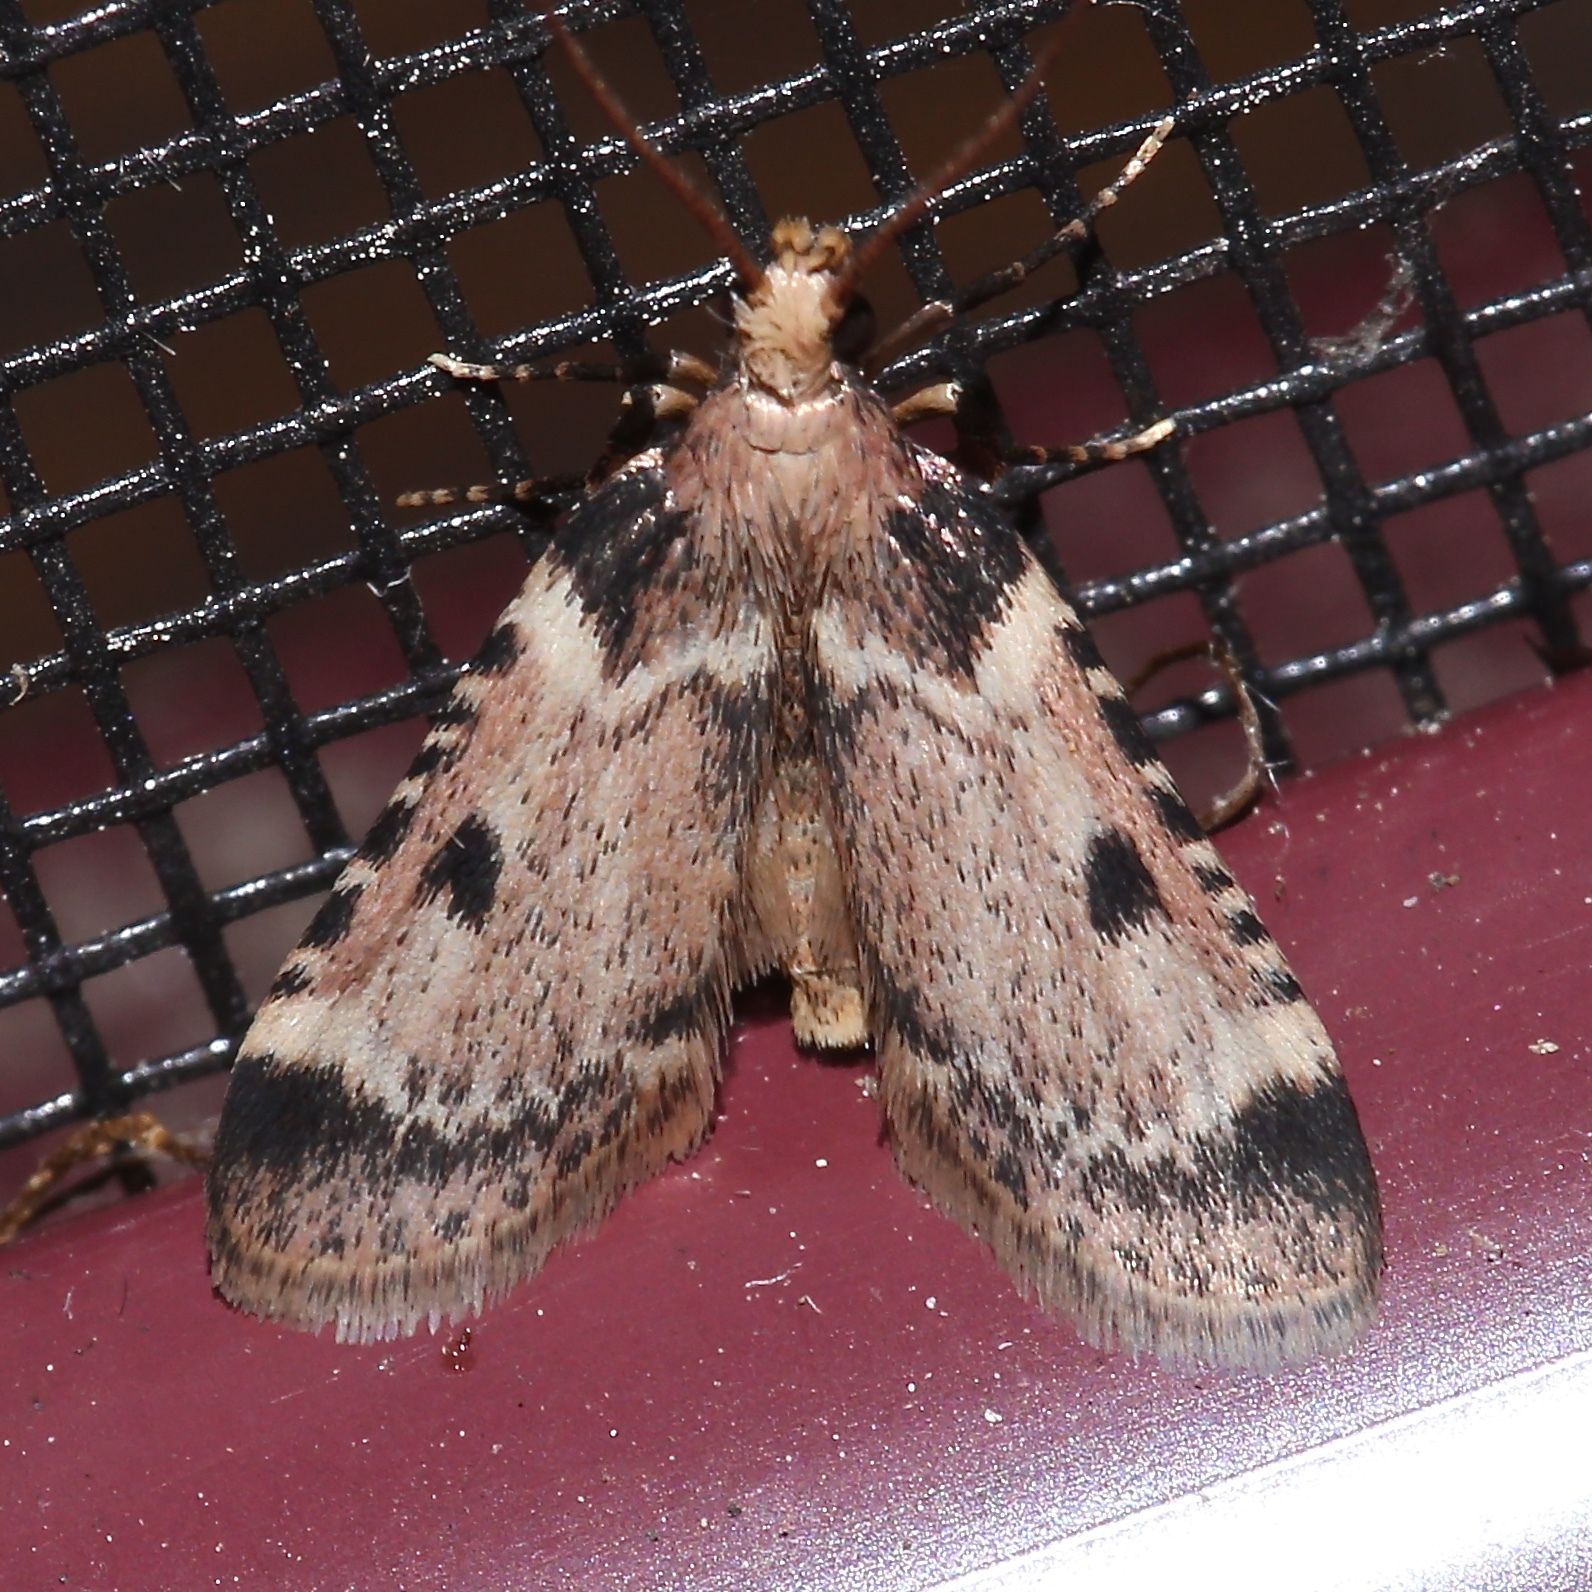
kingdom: Animalia
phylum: Arthropoda
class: Insecta
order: Lepidoptera
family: Pyralidae
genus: Aglossa
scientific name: Aglossa costiferalis
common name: Calico pyralid moth
